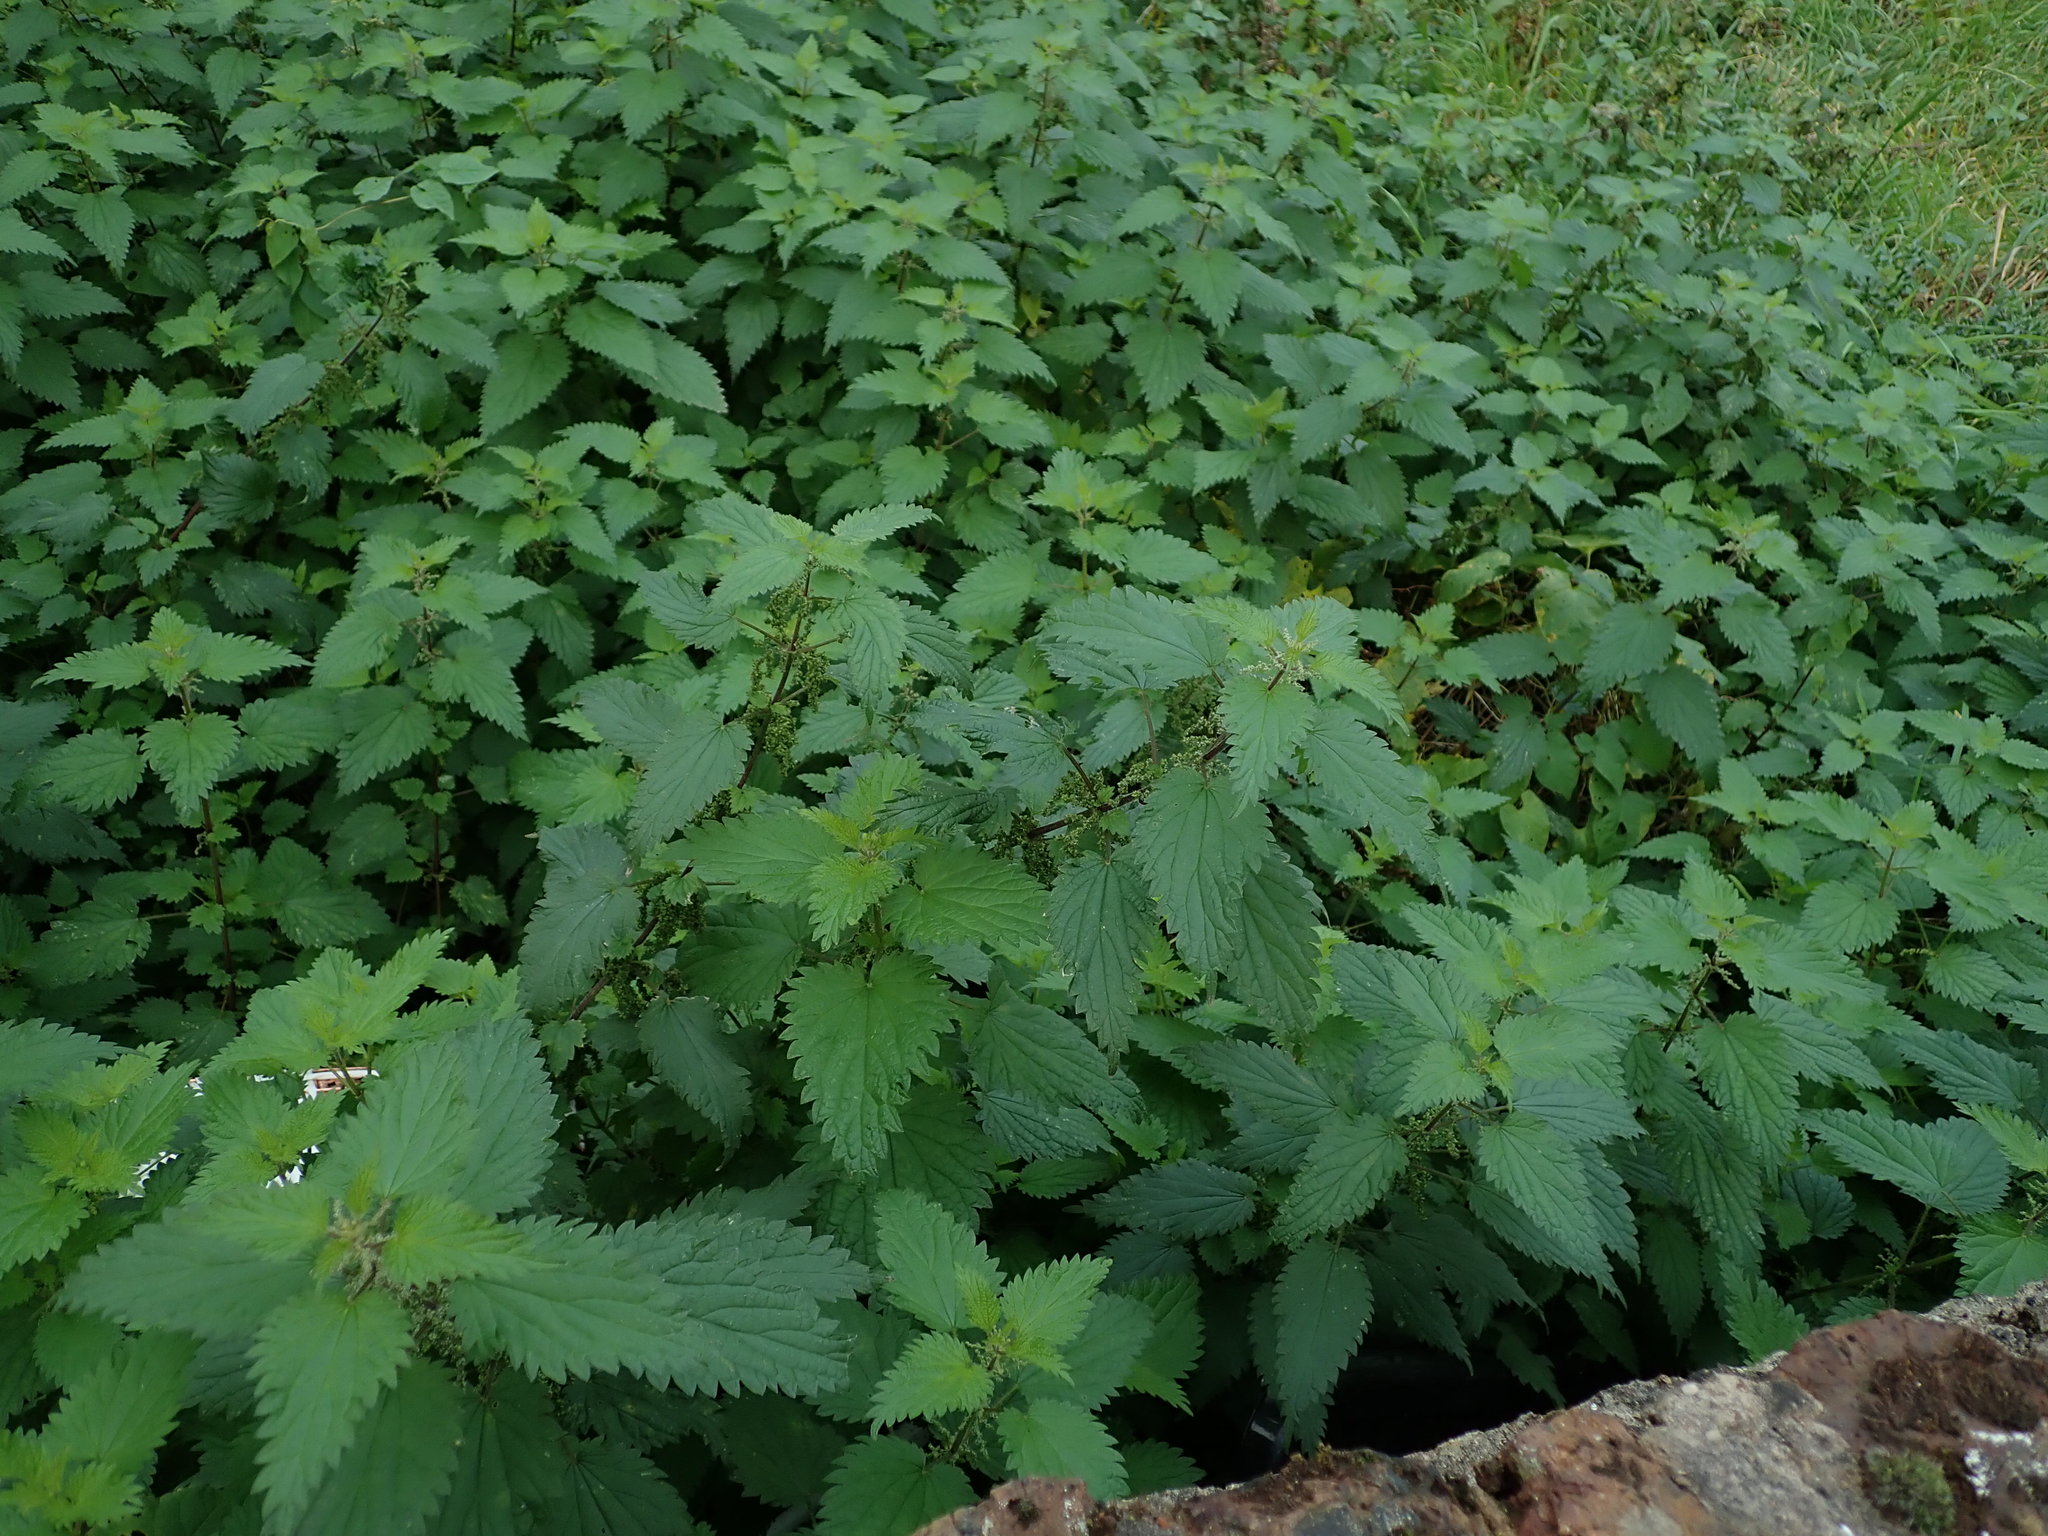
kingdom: Plantae
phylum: Tracheophyta
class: Magnoliopsida
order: Rosales
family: Urticaceae
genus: Urtica
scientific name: Urtica dioica
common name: Common nettle
